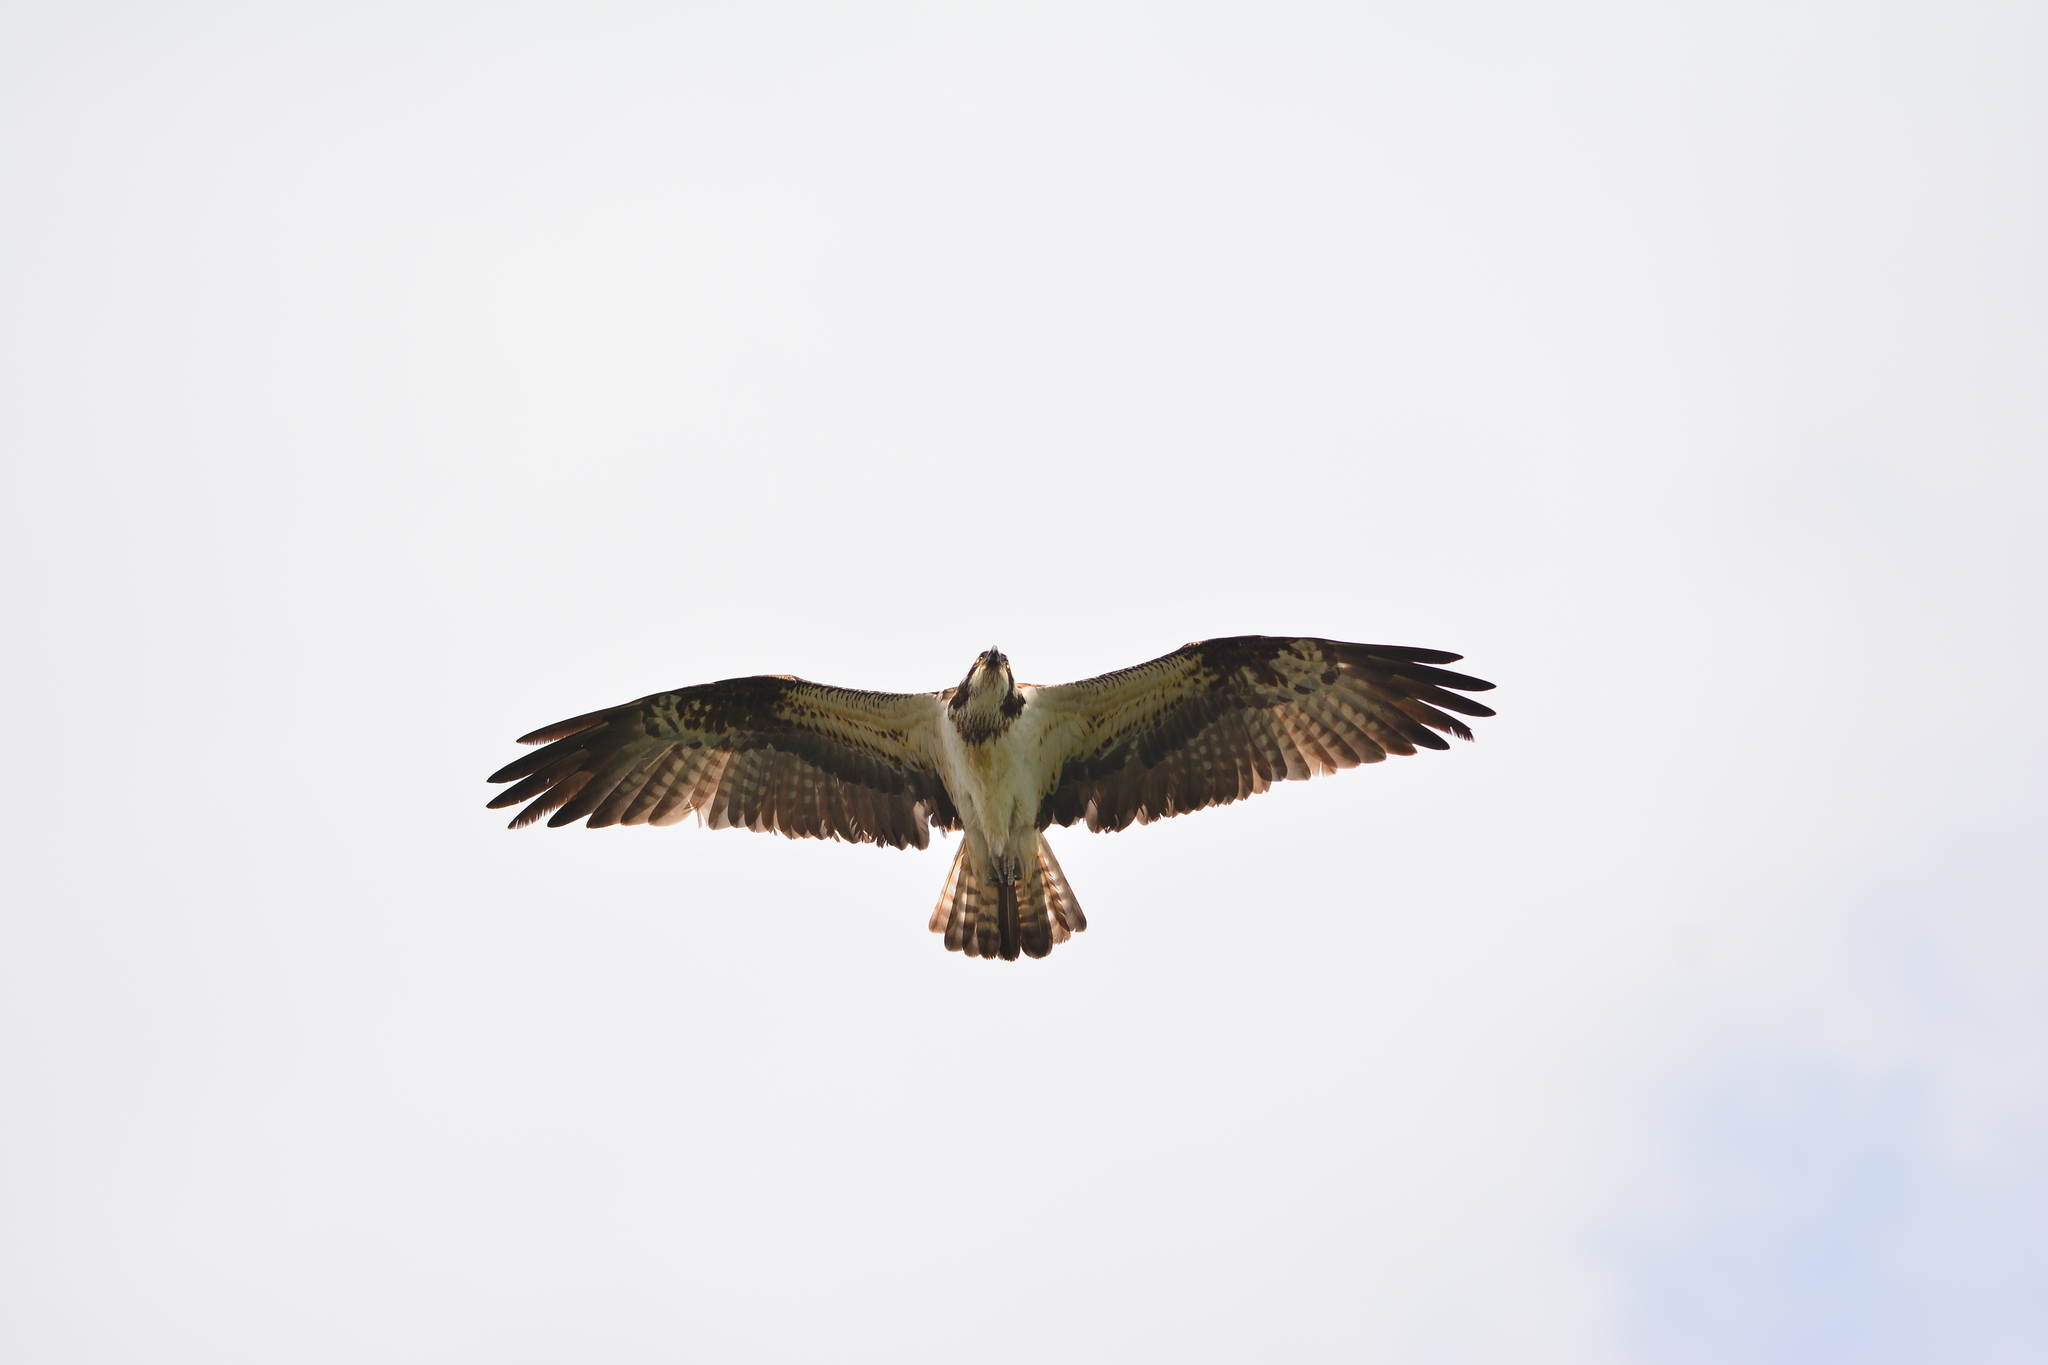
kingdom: Animalia
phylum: Chordata
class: Aves
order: Accipitriformes
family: Pandionidae
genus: Pandion
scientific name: Pandion haliaetus
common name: Osprey
